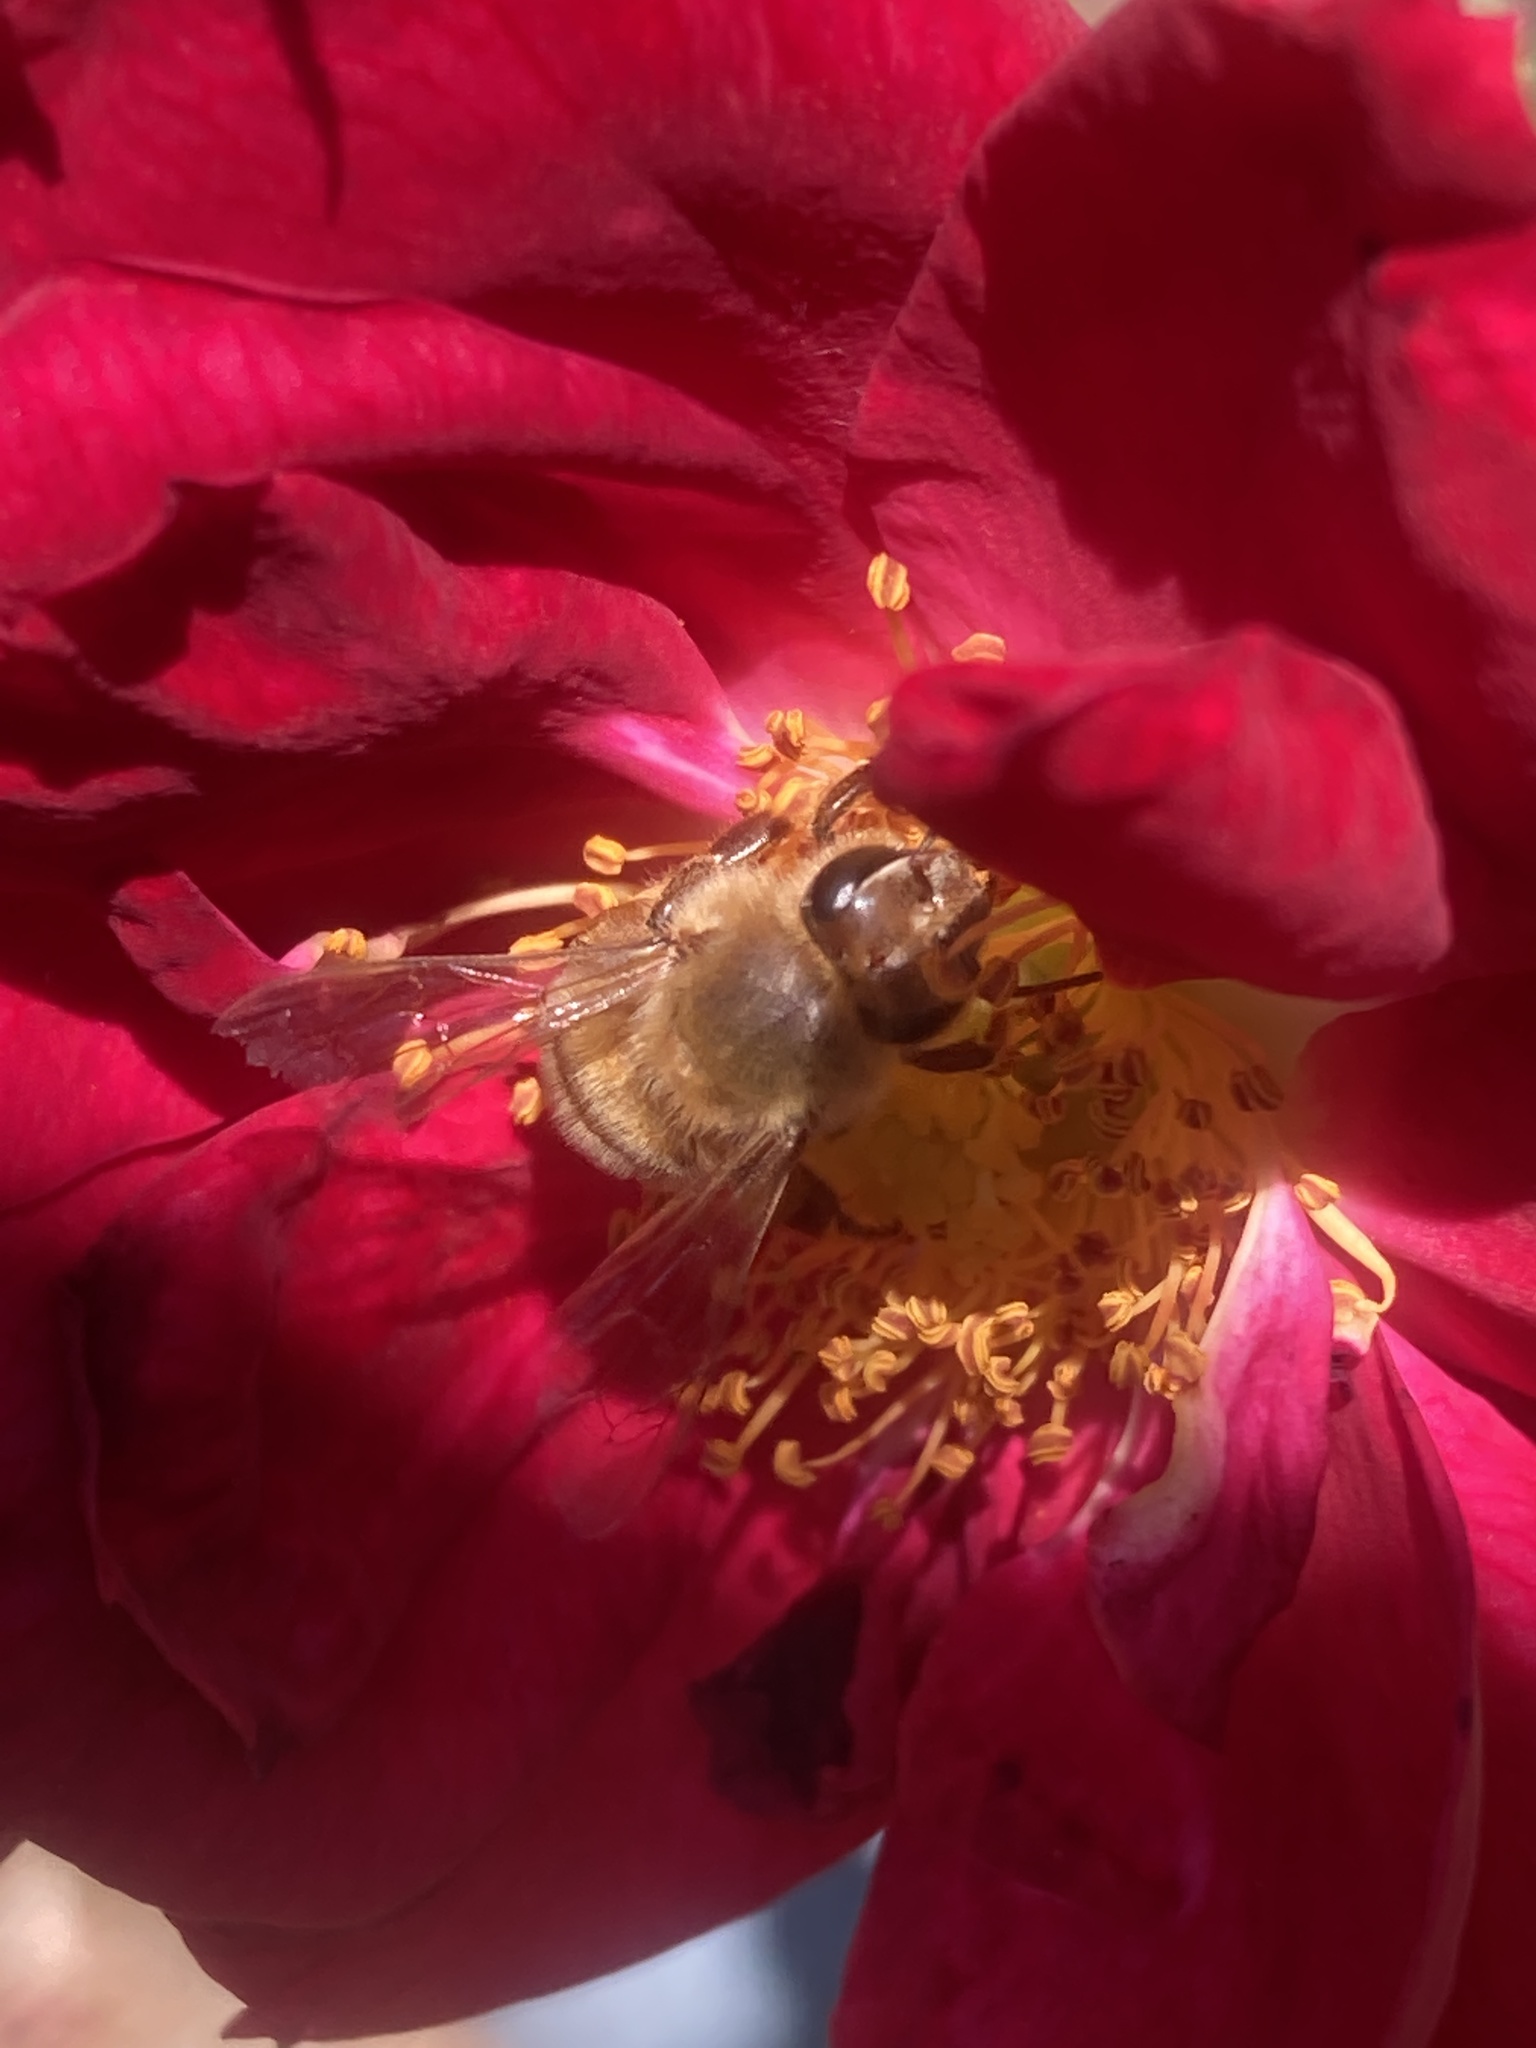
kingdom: Animalia
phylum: Arthropoda
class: Insecta
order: Hymenoptera
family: Apidae
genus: Apis
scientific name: Apis mellifera
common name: Honey bee
